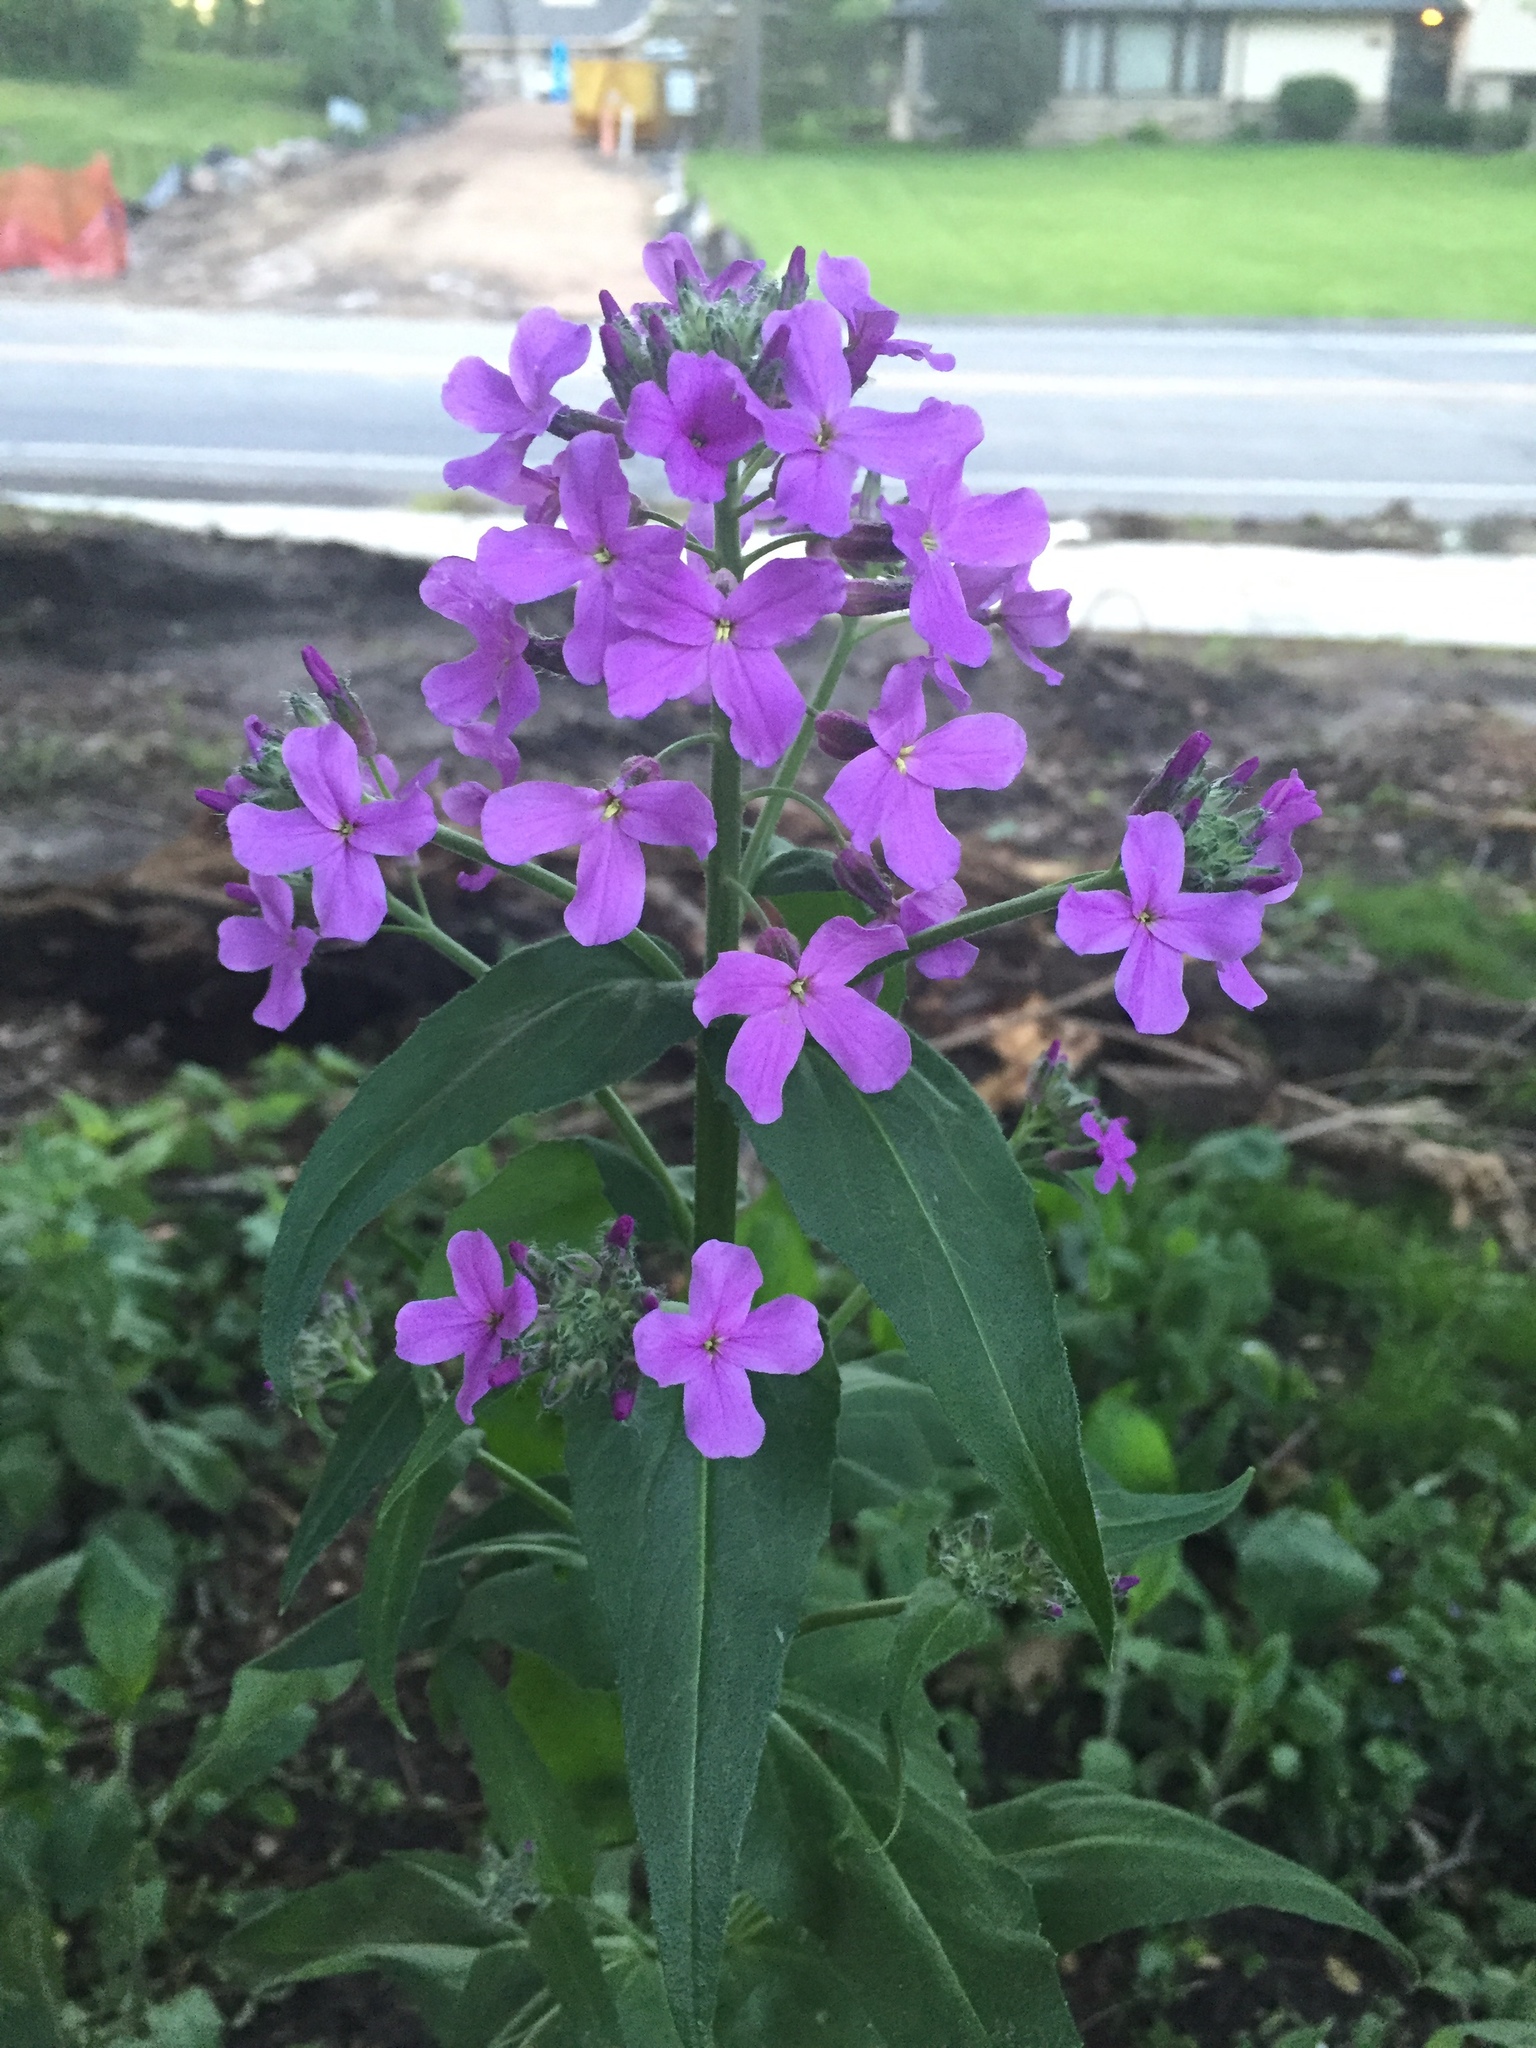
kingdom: Plantae
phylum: Tracheophyta
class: Magnoliopsida
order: Brassicales
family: Brassicaceae
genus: Hesperis
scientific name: Hesperis matronalis
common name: Dame's-violet
